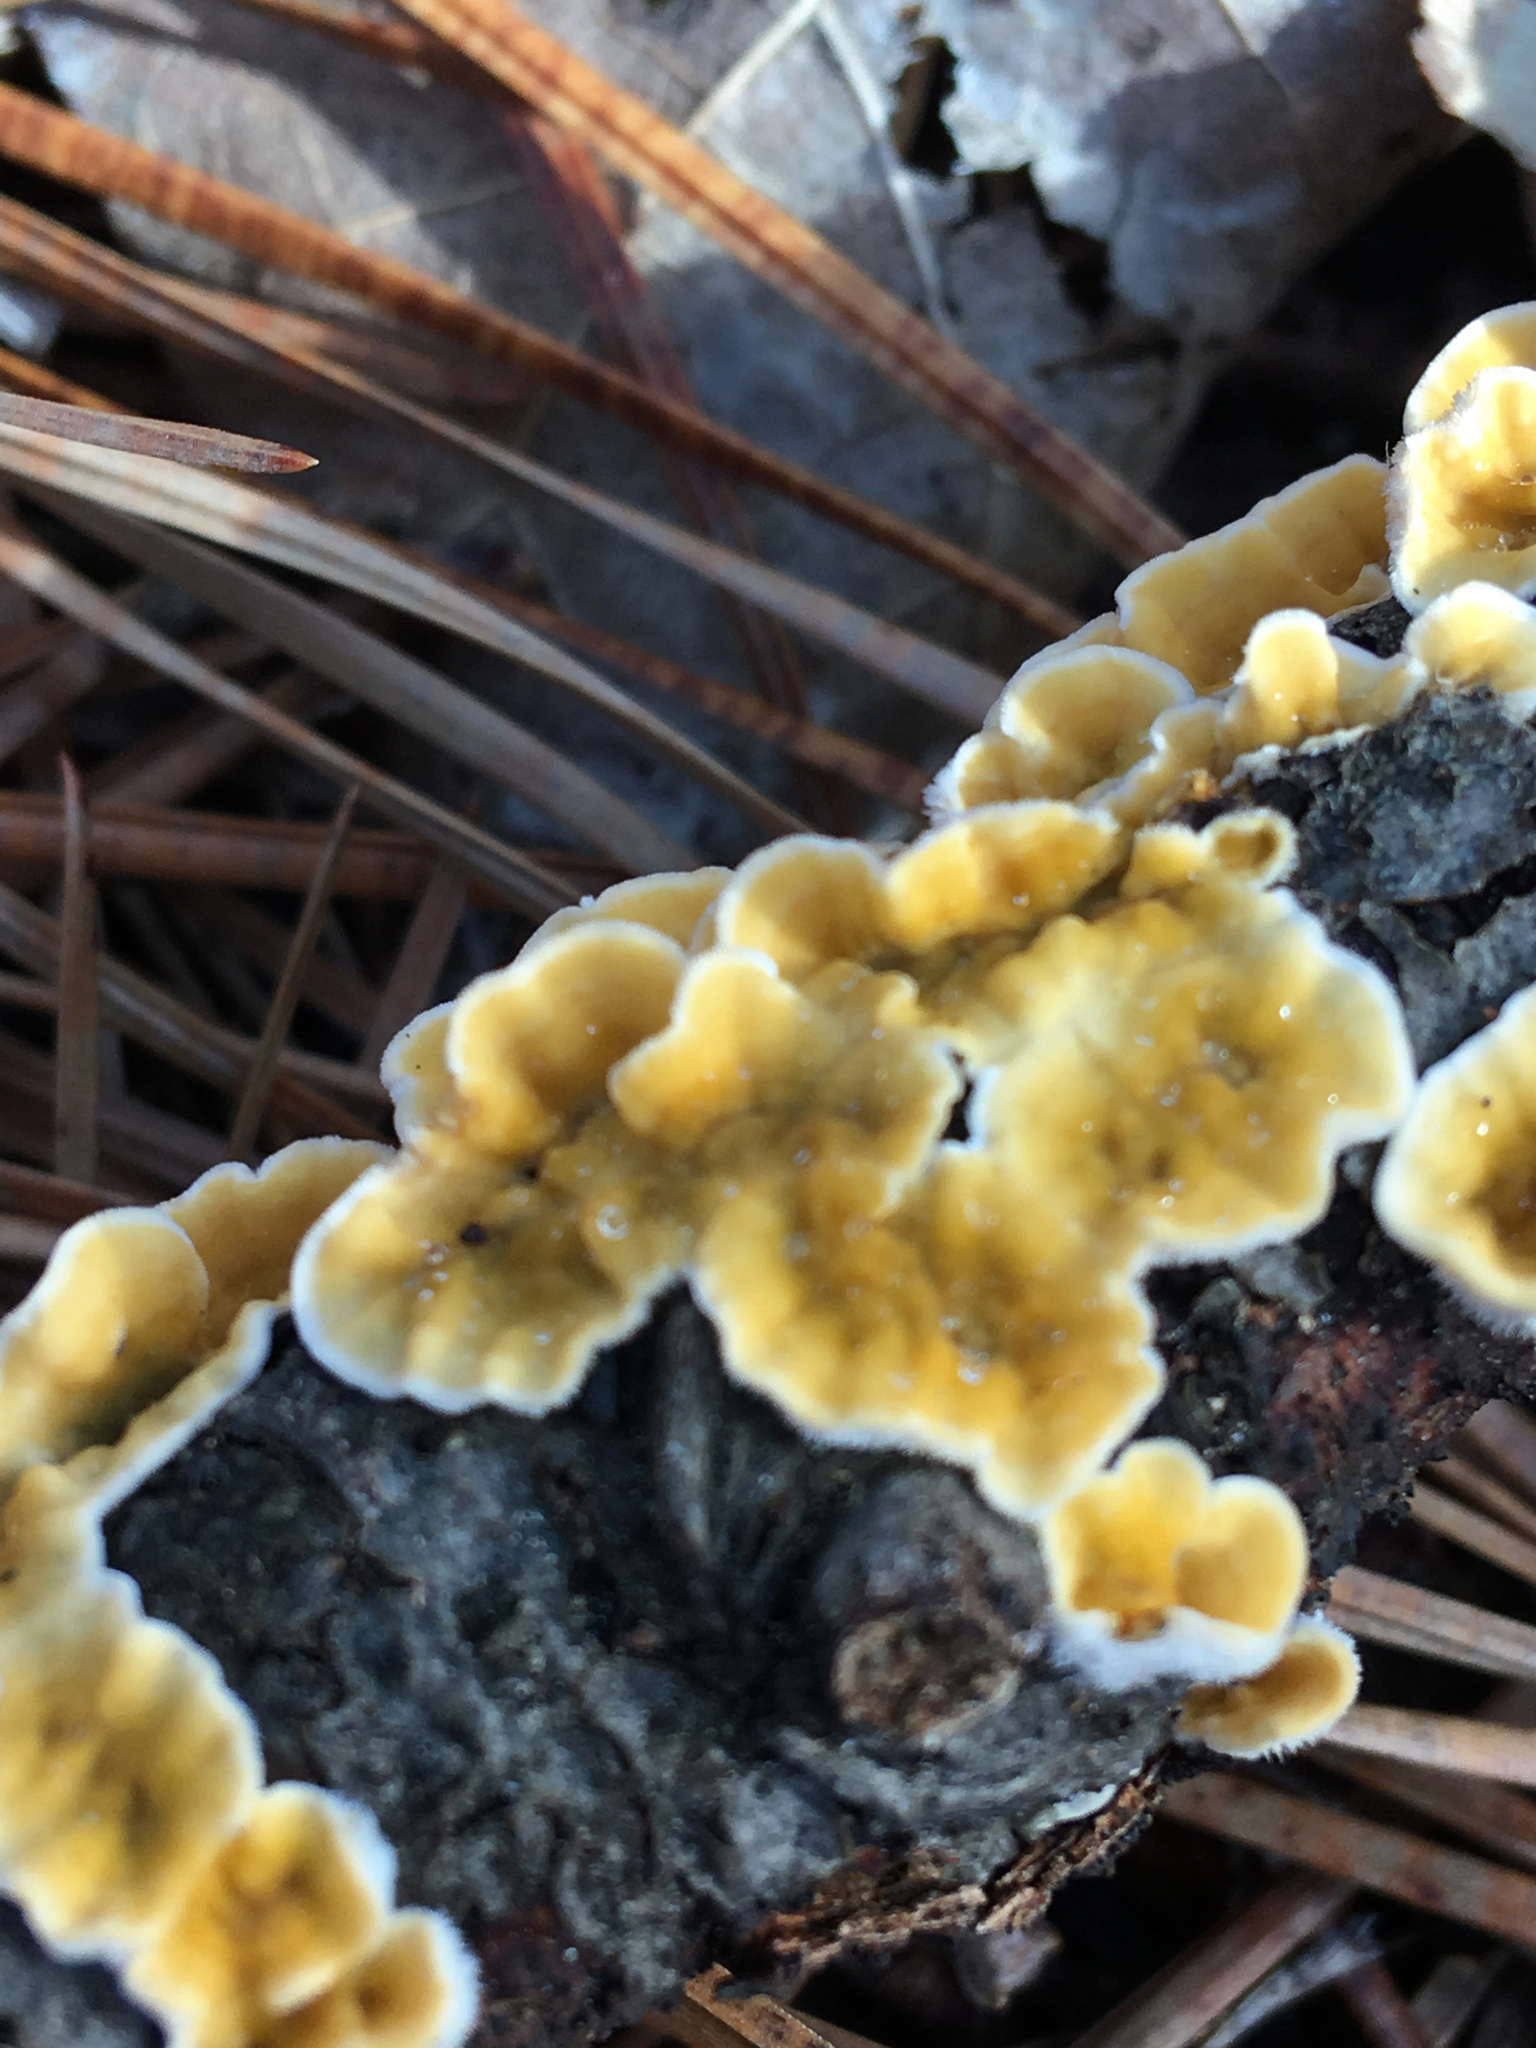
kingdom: Fungi
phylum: Basidiomycota
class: Agaricomycetes
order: Russulales
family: Stereaceae
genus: Stereum
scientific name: Stereum ochraceoflavum
